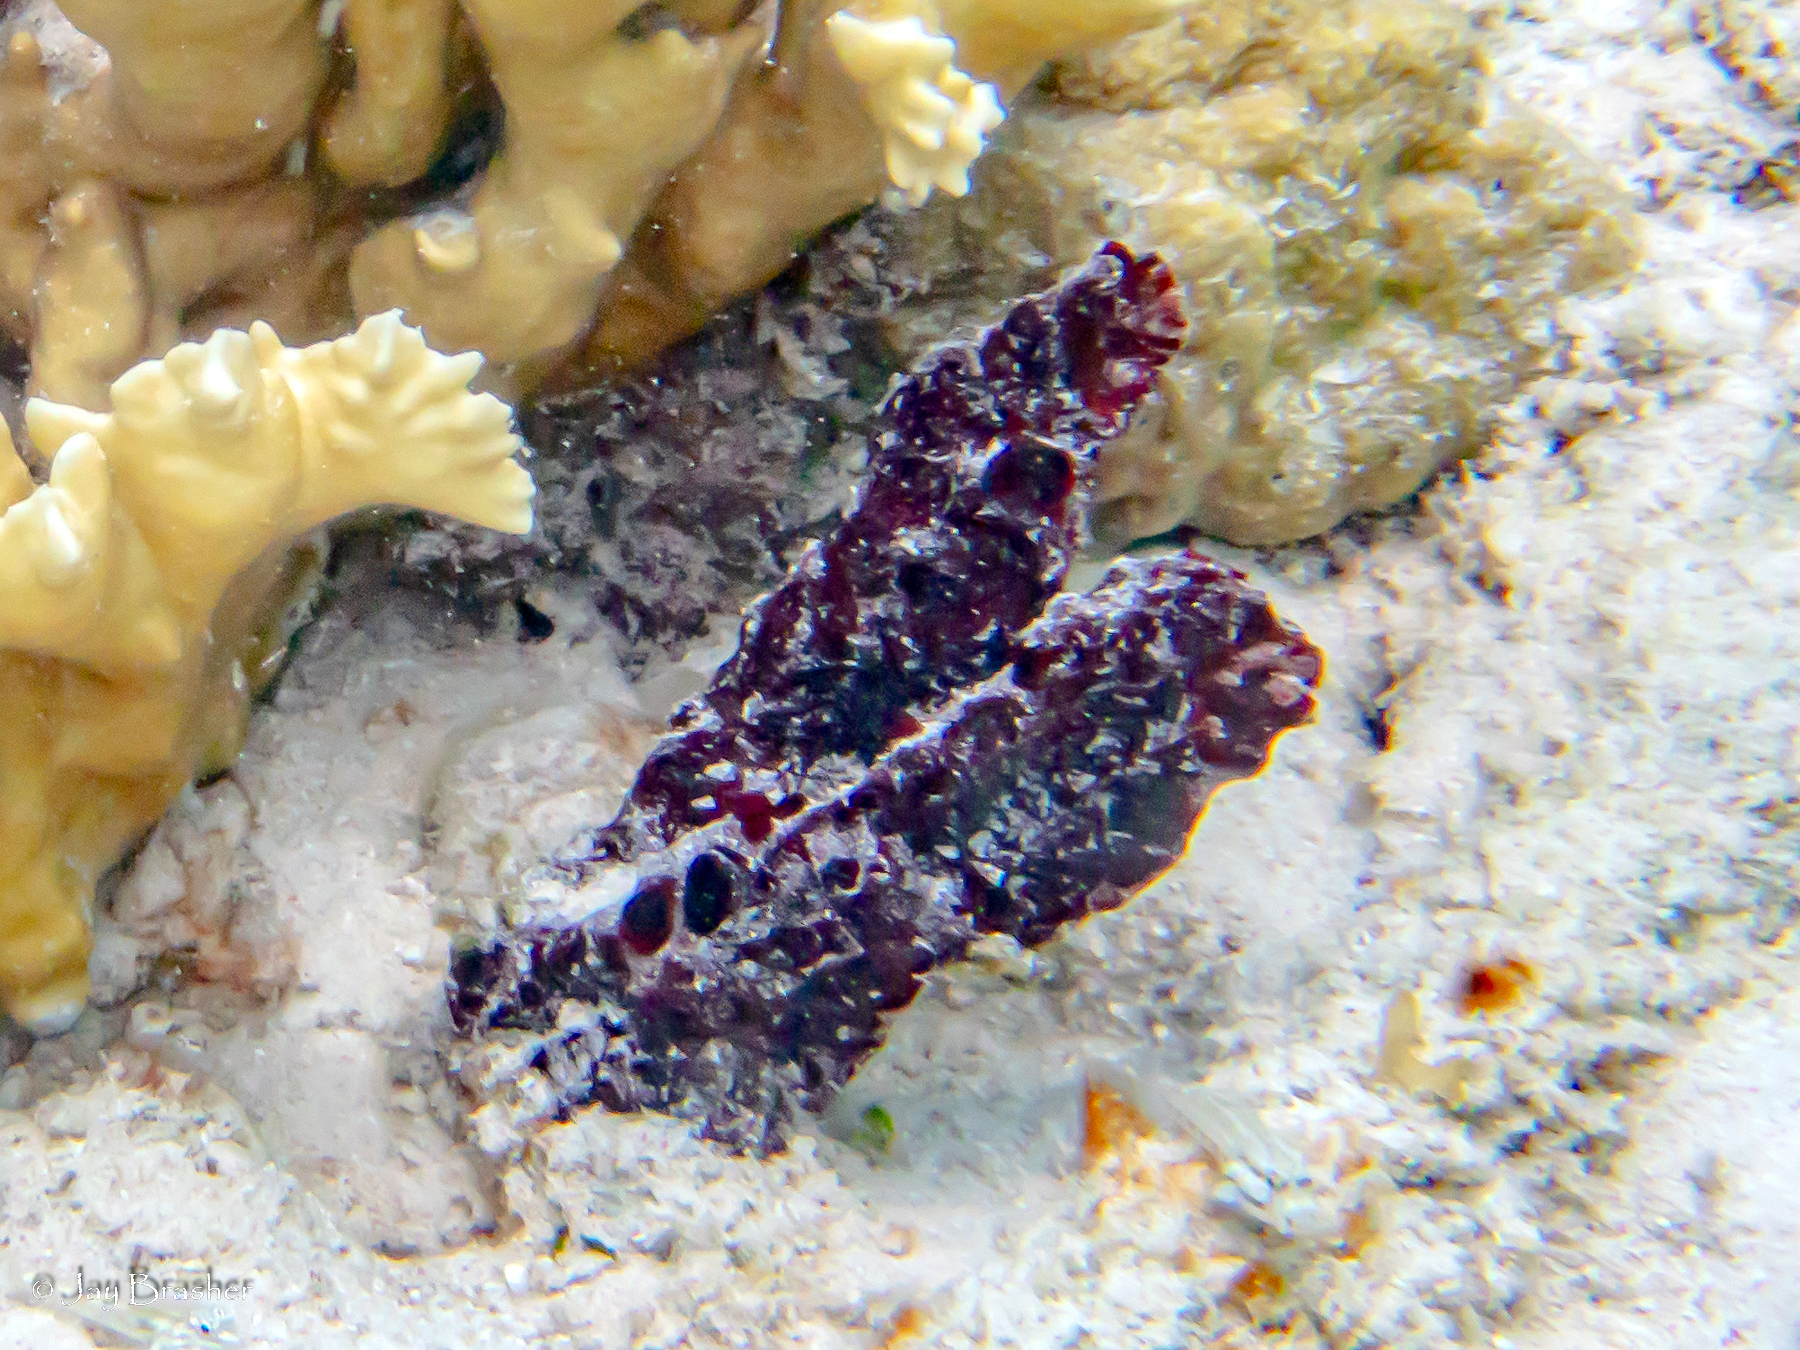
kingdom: Animalia
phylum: Porifera
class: Demospongiae
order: Poecilosclerida
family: Microcionidae
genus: Pandaros
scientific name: Pandaros acanthifolium
